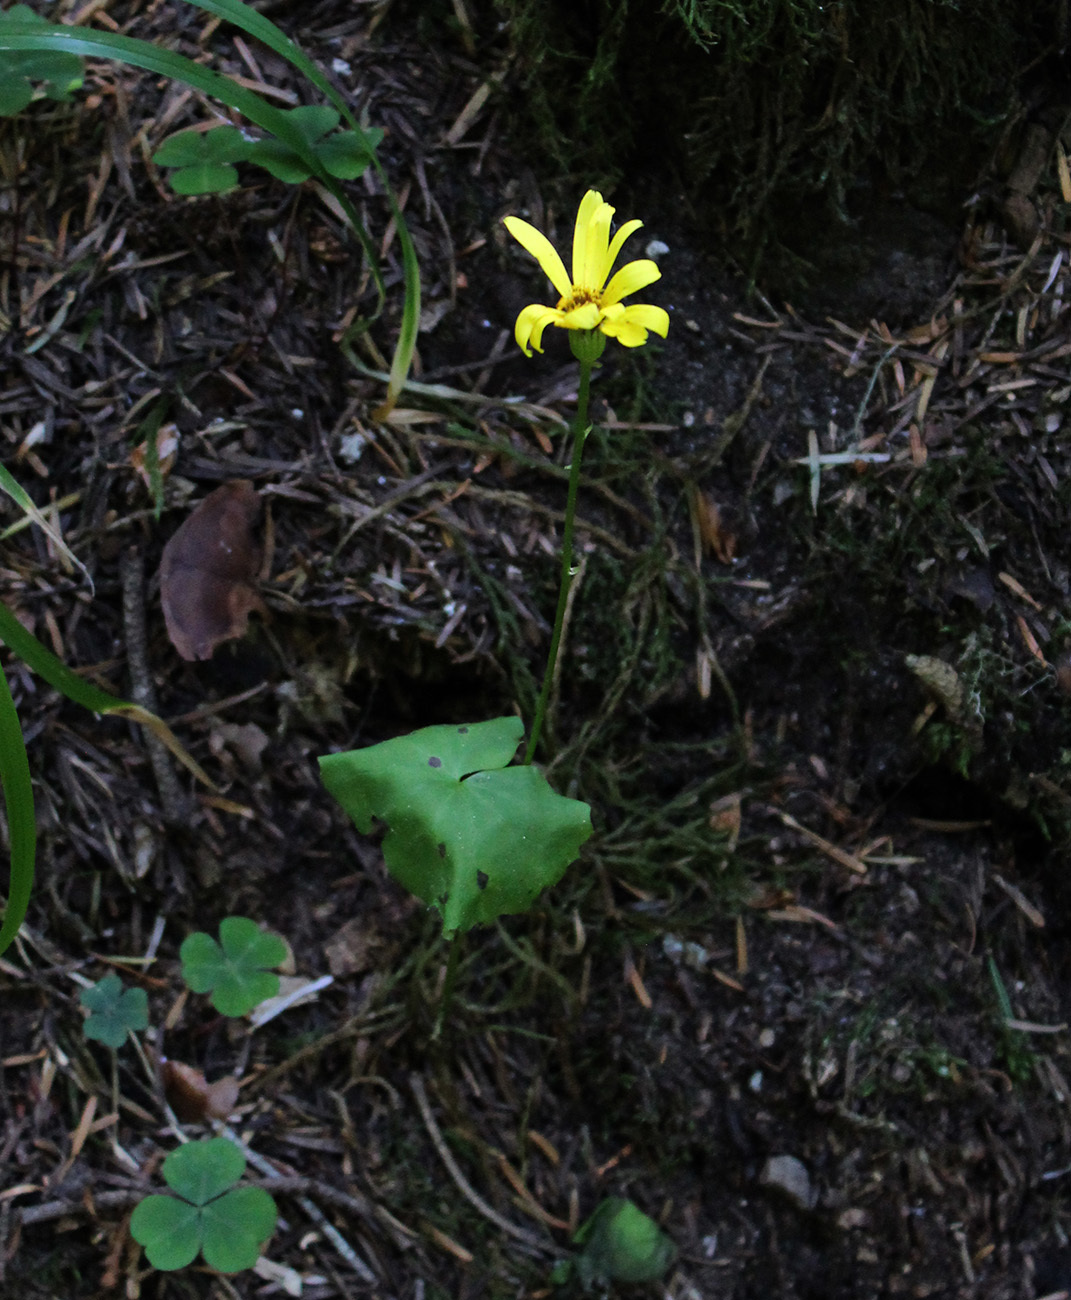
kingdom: Plantae
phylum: Tracheophyta
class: Magnoliopsida
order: Asterales
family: Asteraceae
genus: Dolichorrhiza
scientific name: Dolichorrhiza renifolia
